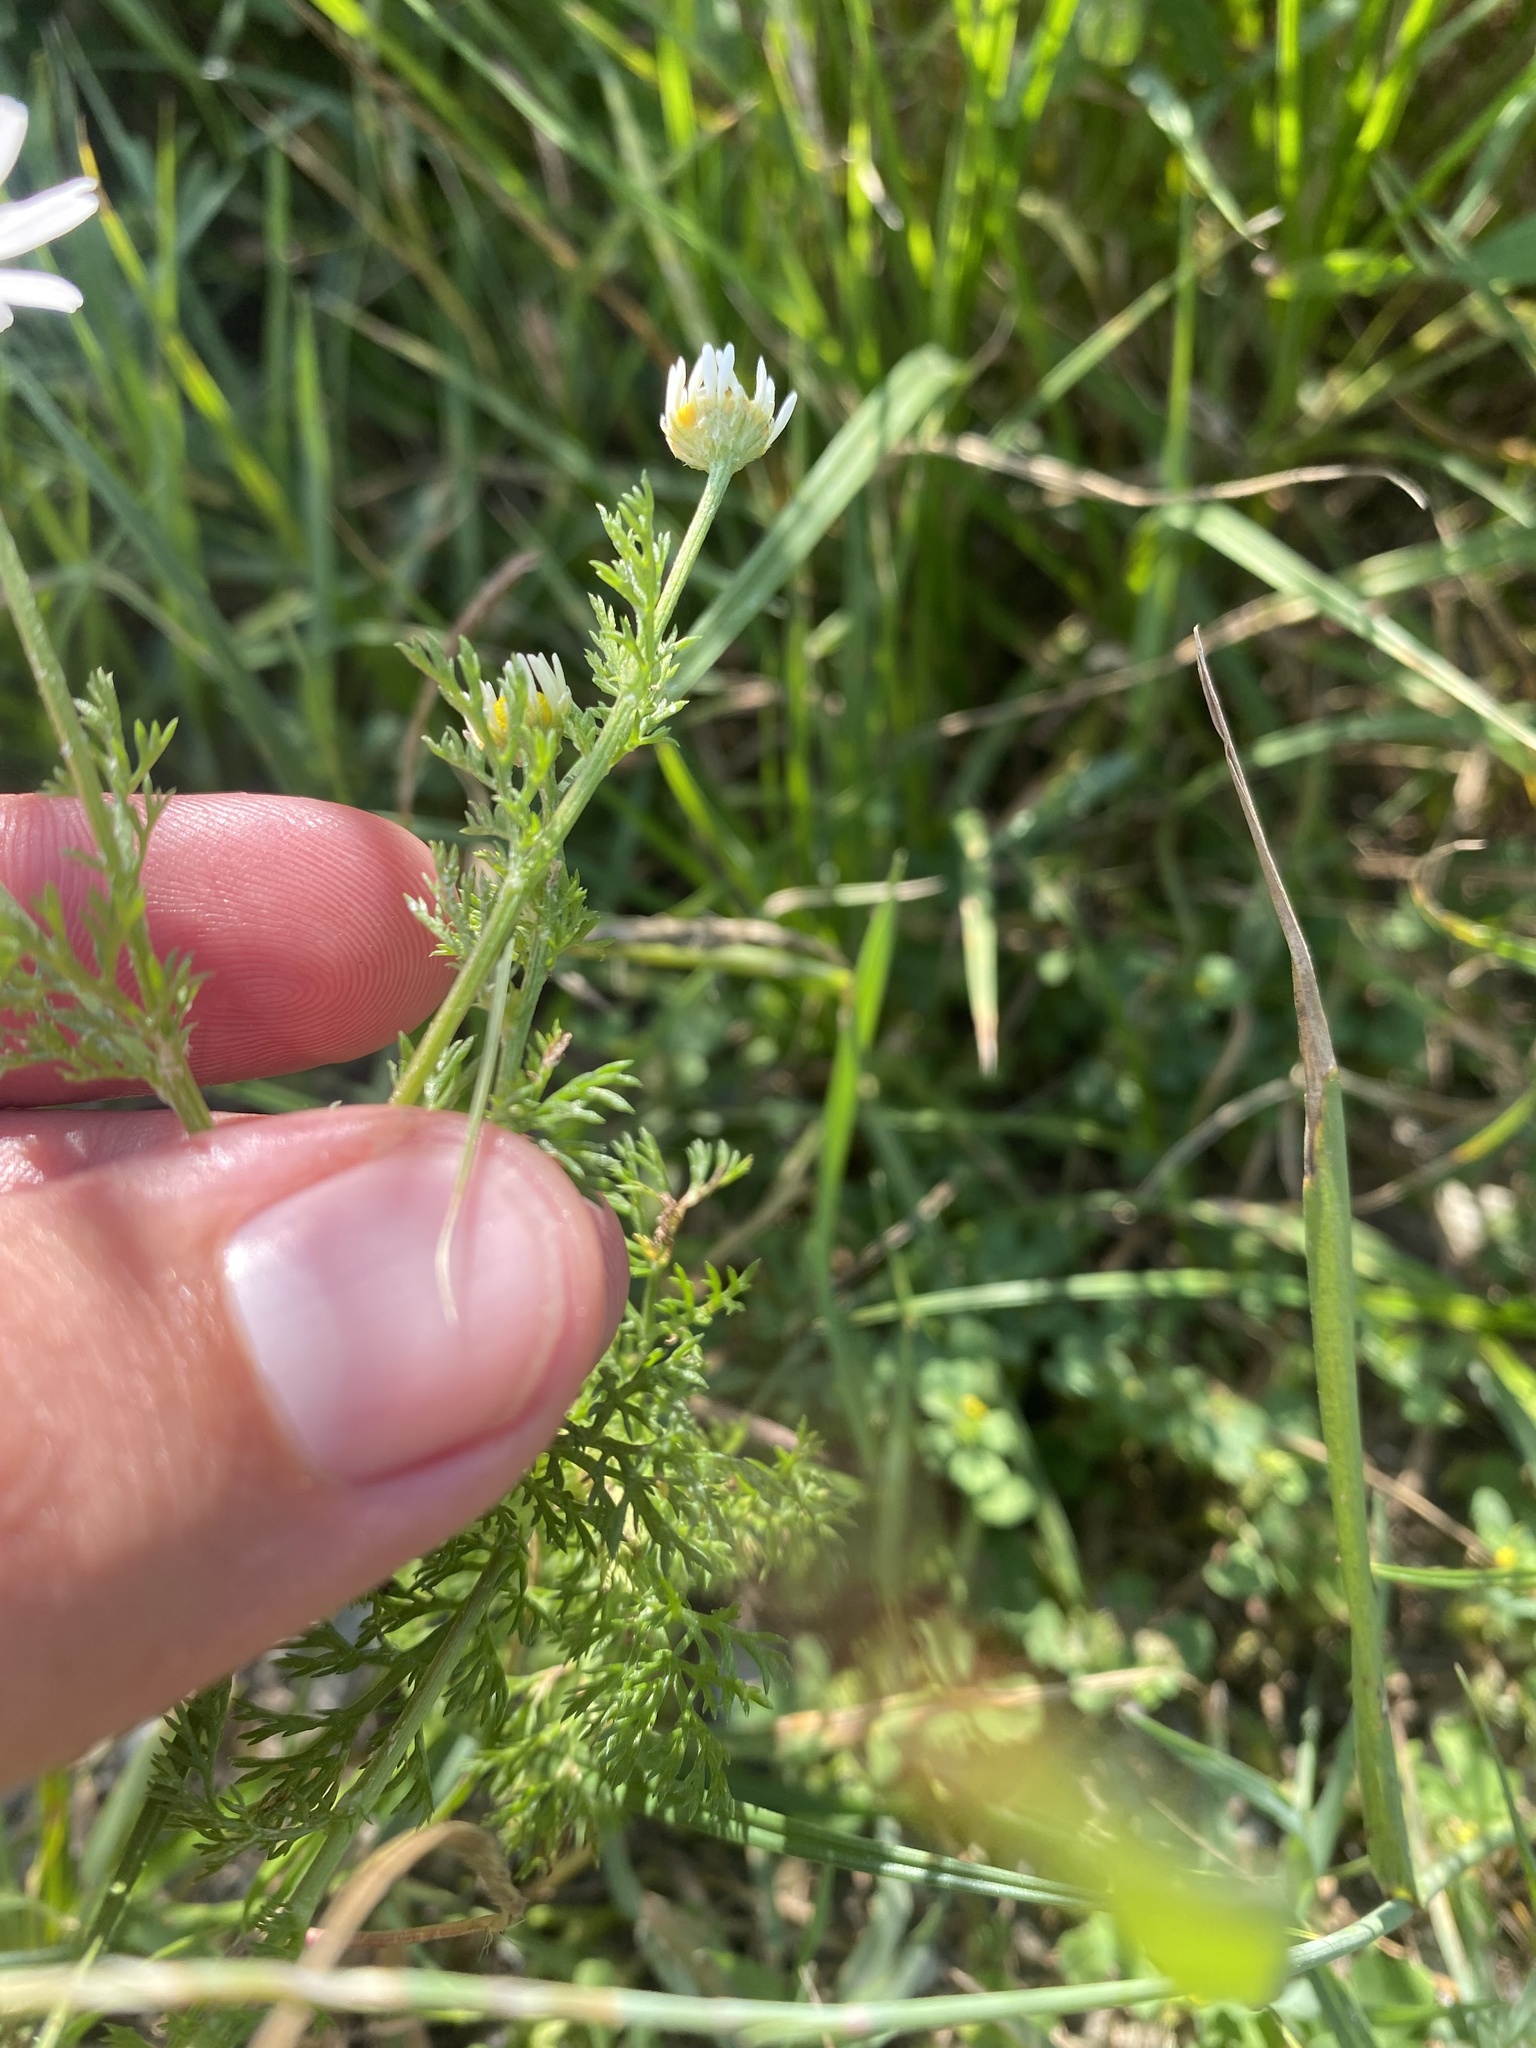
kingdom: Plantae
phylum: Tracheophyta
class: Magnoliopsida
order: Asterales
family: Asteraceae
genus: Tripleurospermum
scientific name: Tripleurospermum inodorum
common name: Scentless mayweed
